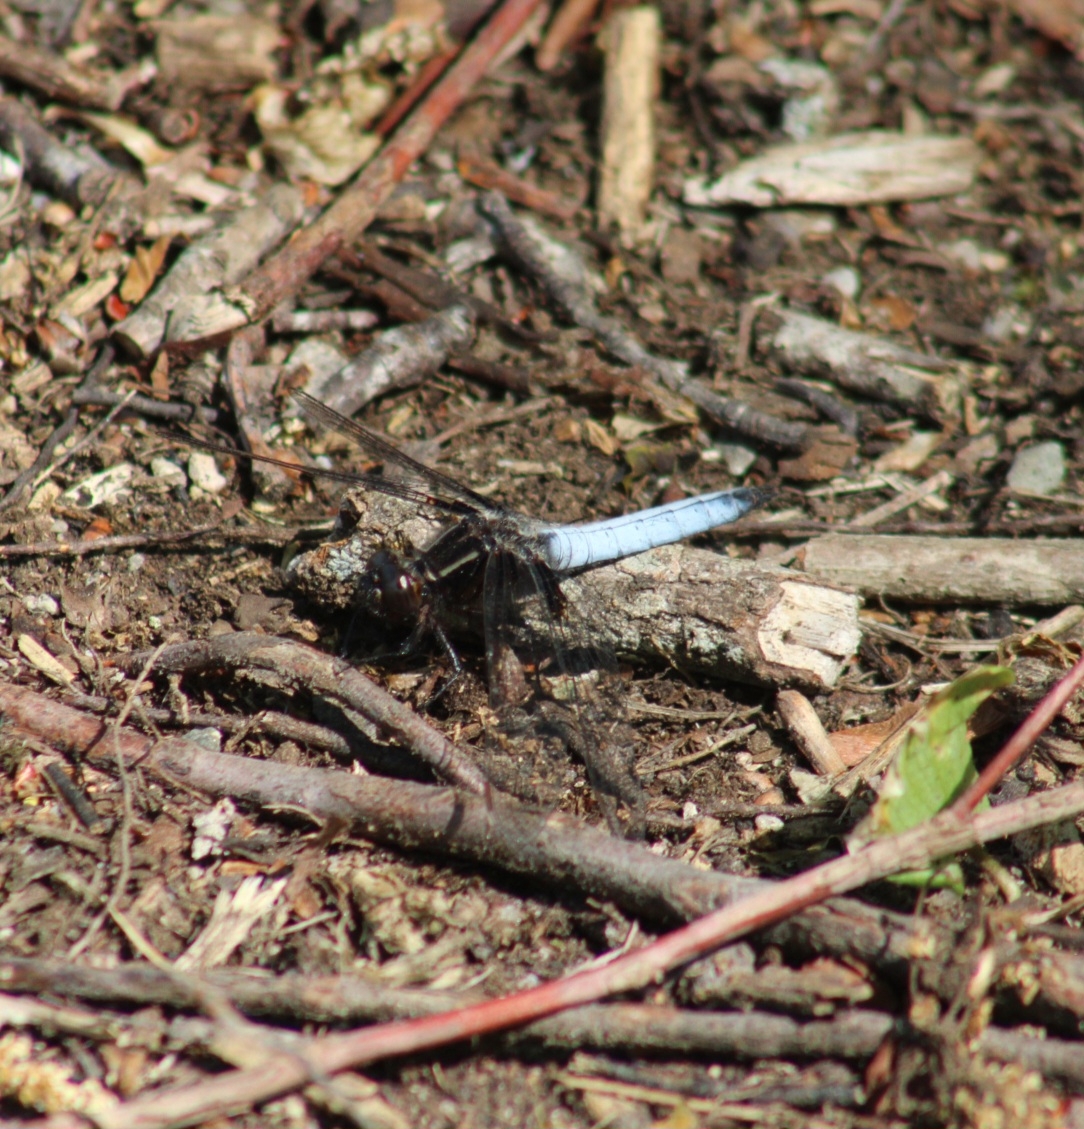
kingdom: Animalia
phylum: Arthropoda
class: Insecta
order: Odonata
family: Libellulidae
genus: Ladona
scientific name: Ladona exusta
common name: Libellule embrasée
